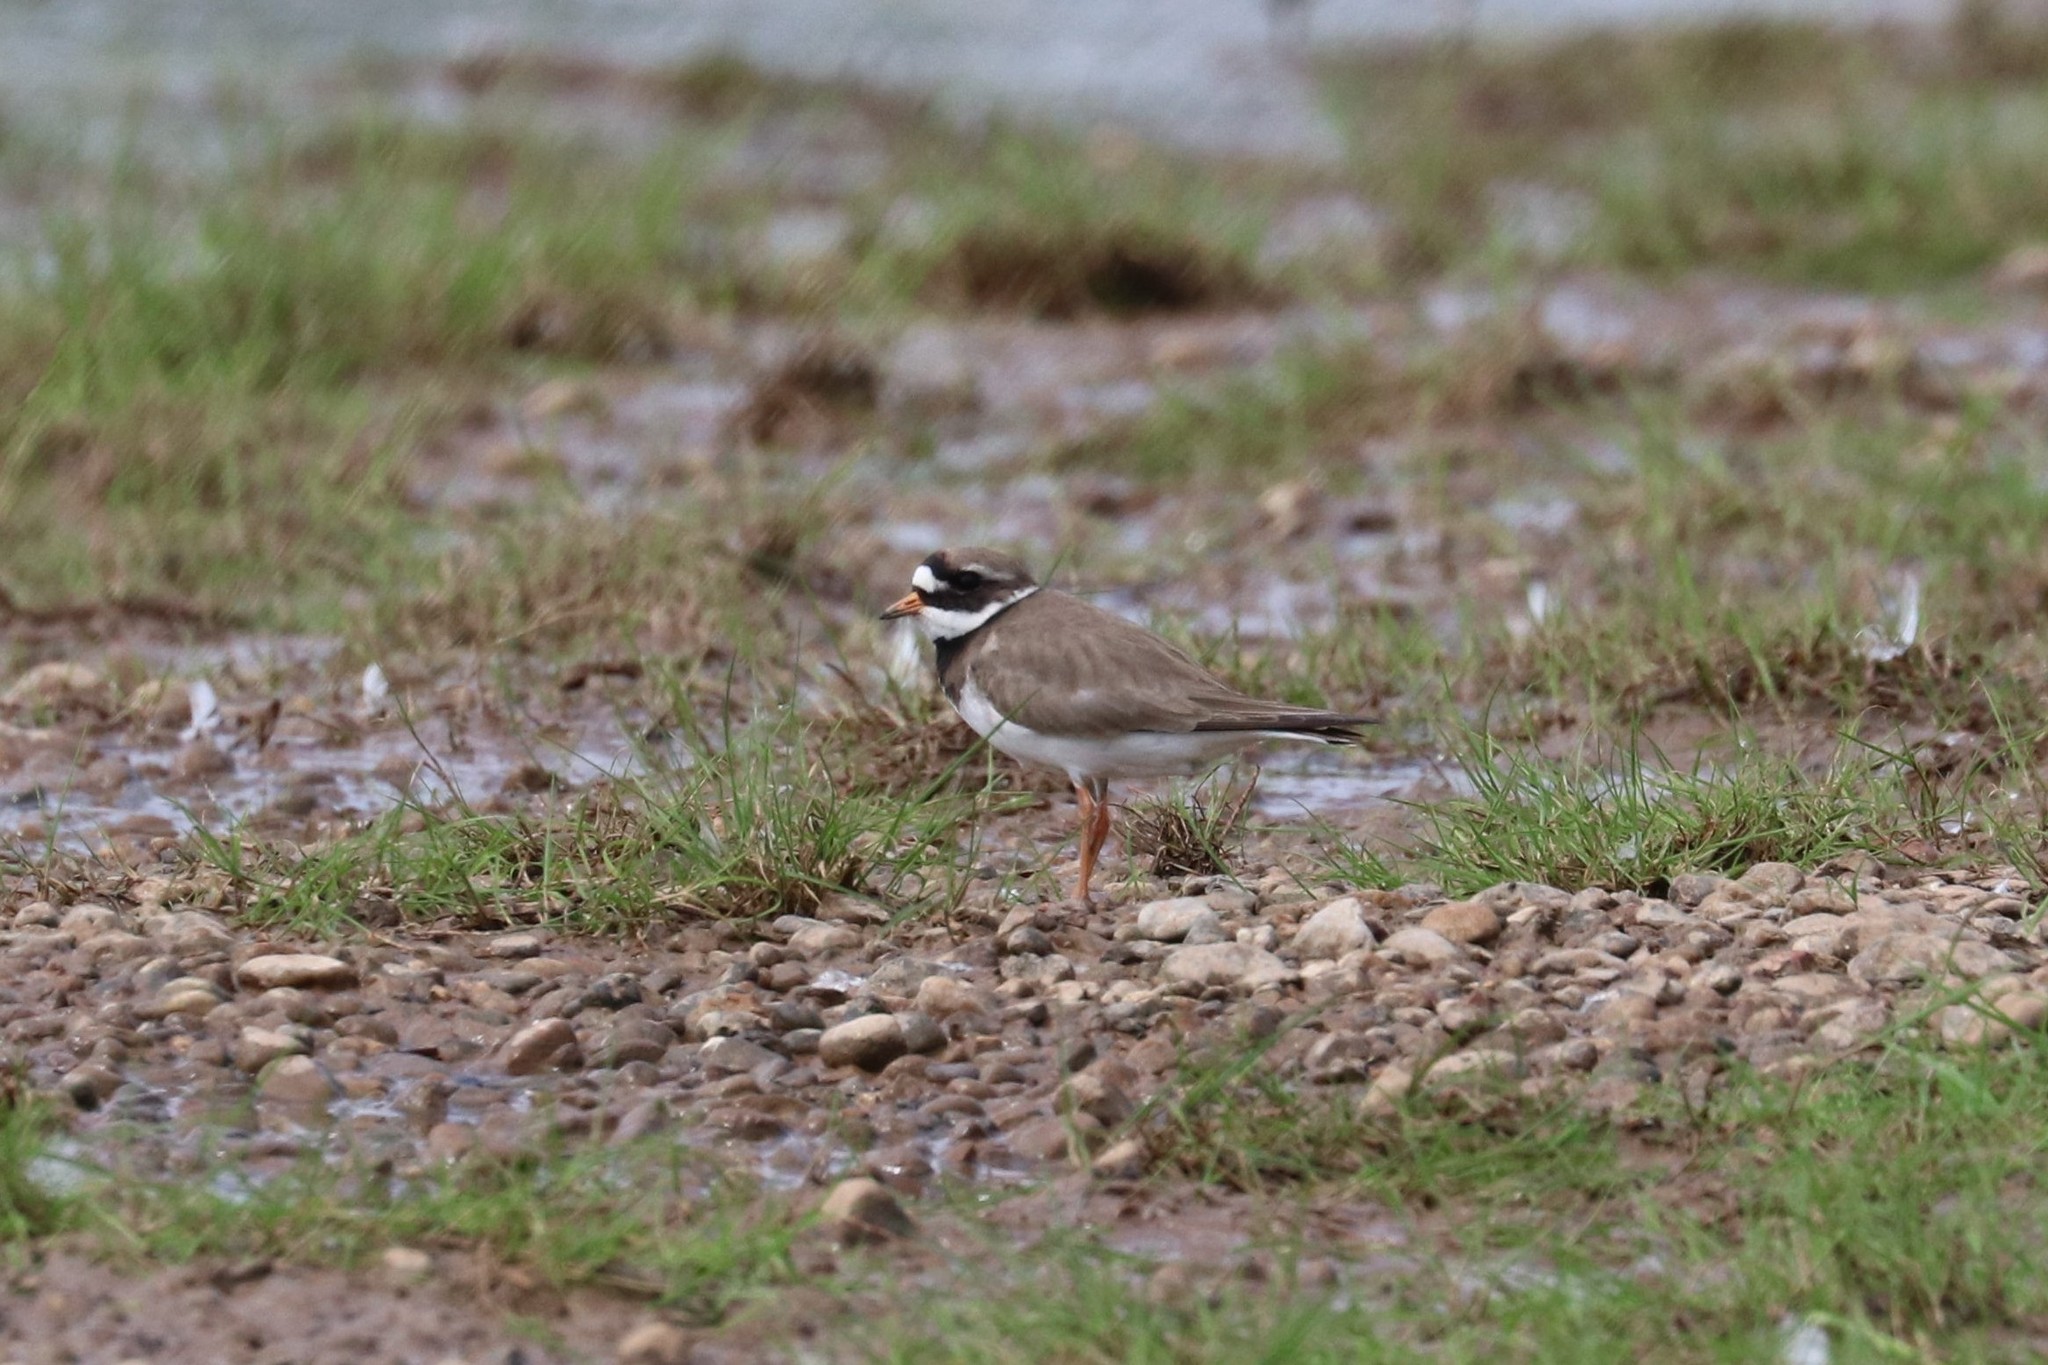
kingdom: Animalia
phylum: Chordata
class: Aves
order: Charadriiformes
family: Charadriidae
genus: Charadrius
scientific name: Charadrius hiaticula
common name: Common ringed plover
